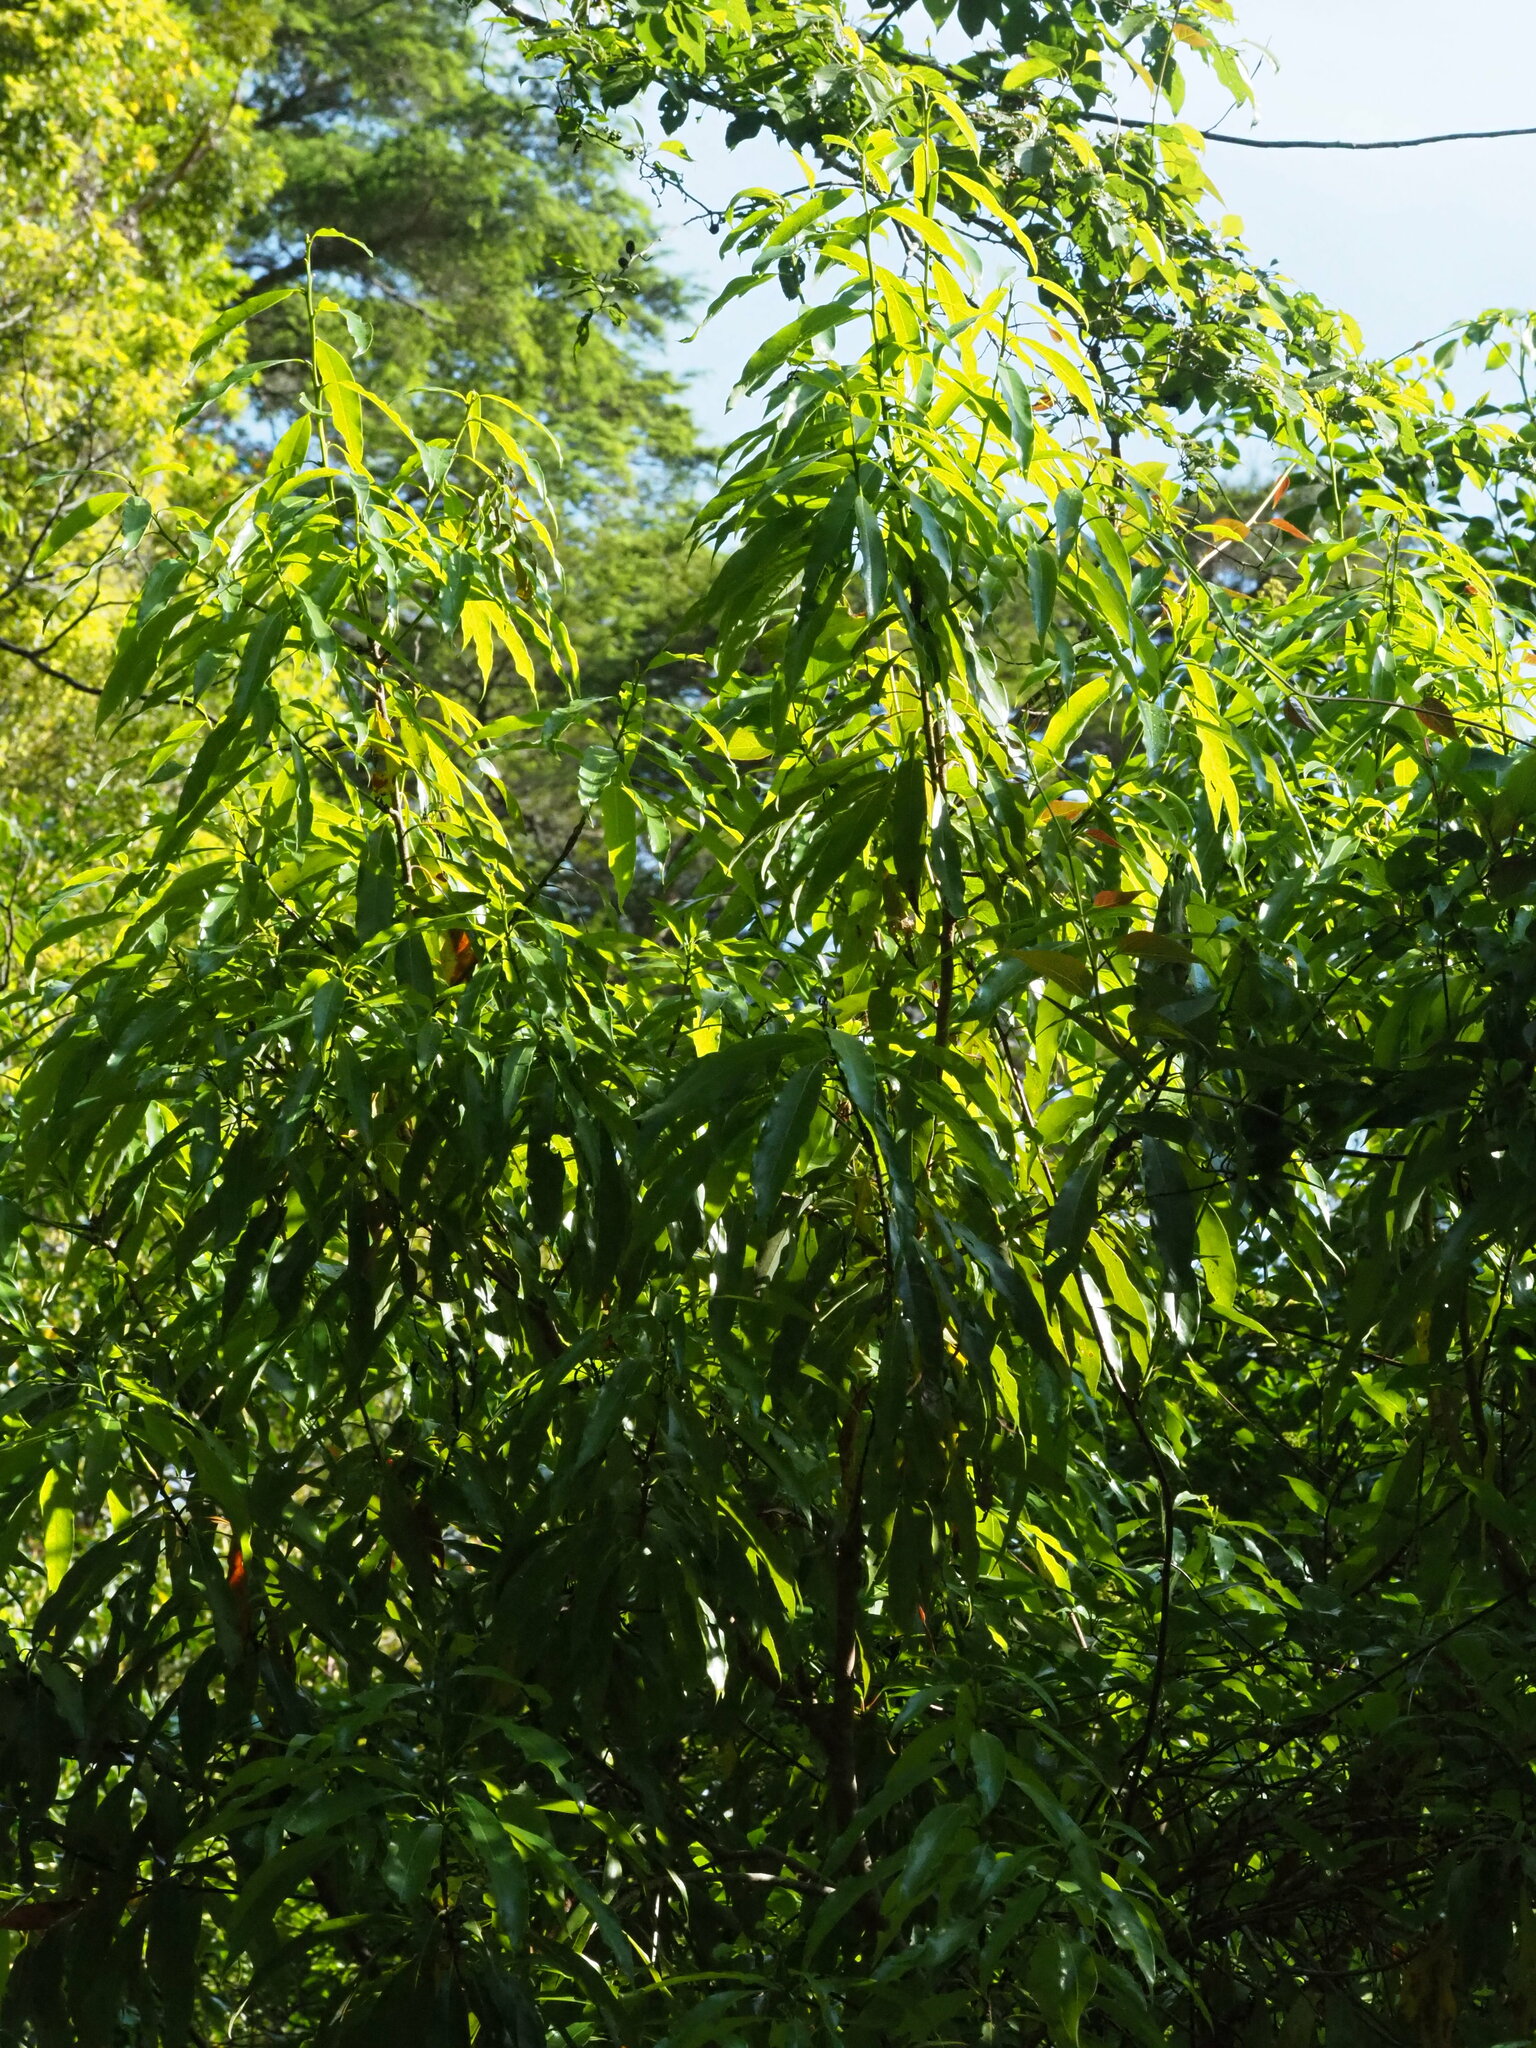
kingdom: Plantae
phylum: Tracheophyta
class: Magnoliopsida
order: Laurales
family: Lauraceae
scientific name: Lauraceae
